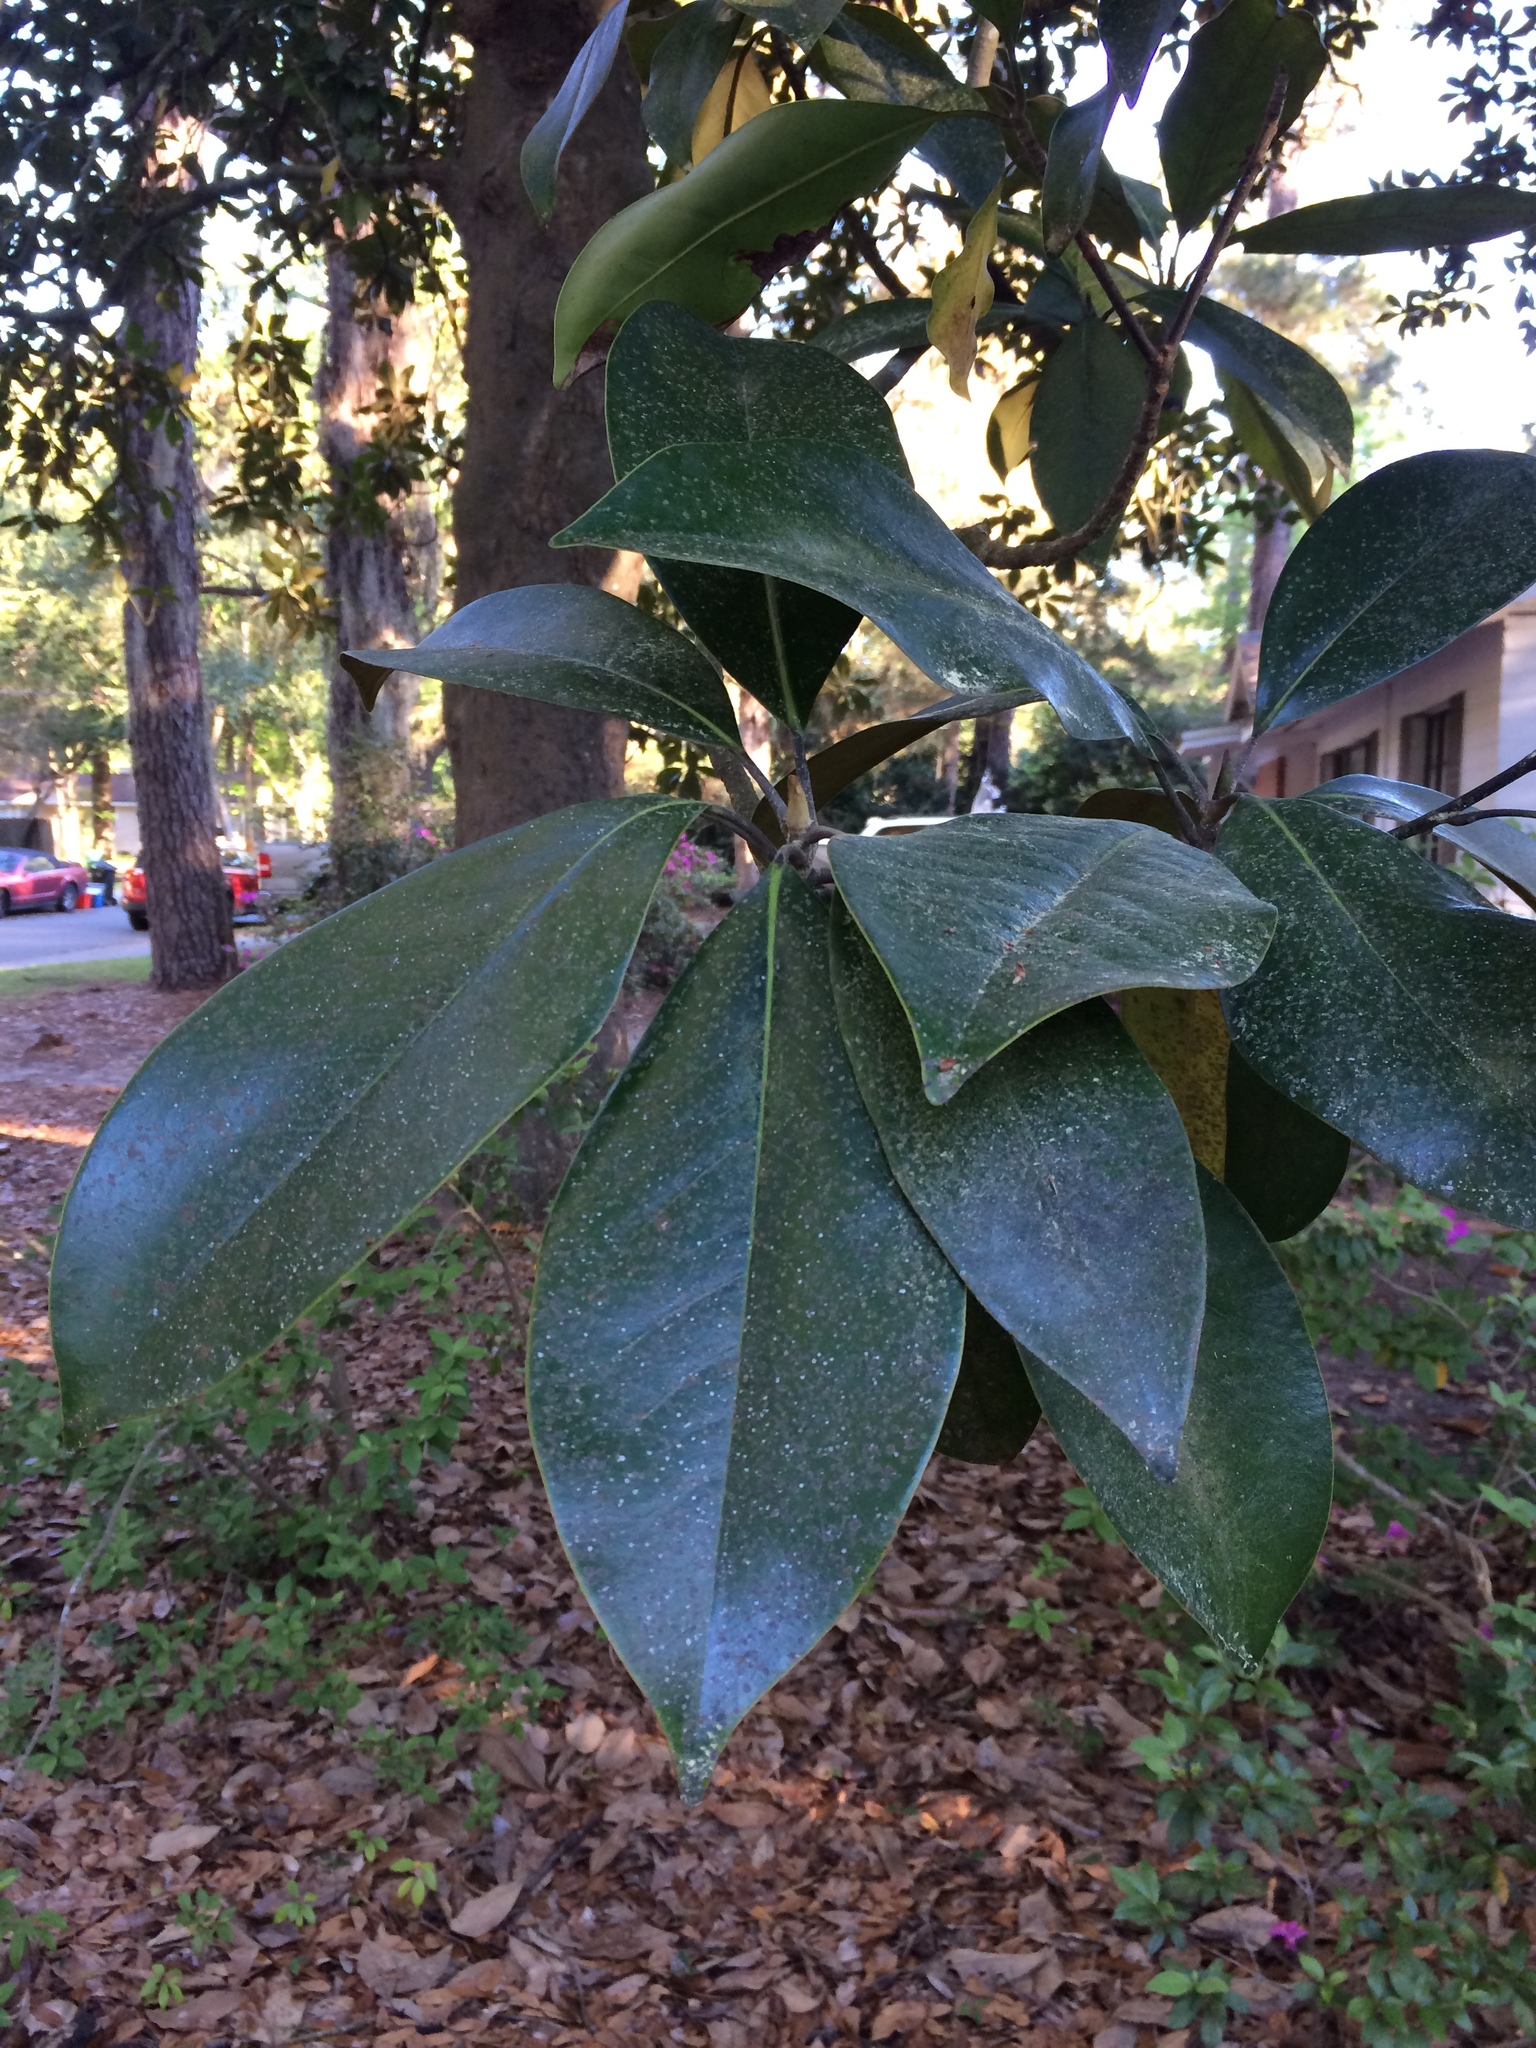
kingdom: Plantae
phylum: Tracheophyta
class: Magnoliopsida
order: Magnoliales
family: Magnoliaceae
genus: Magnolia
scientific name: Magnolia grandiflora
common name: Southern magnolia
